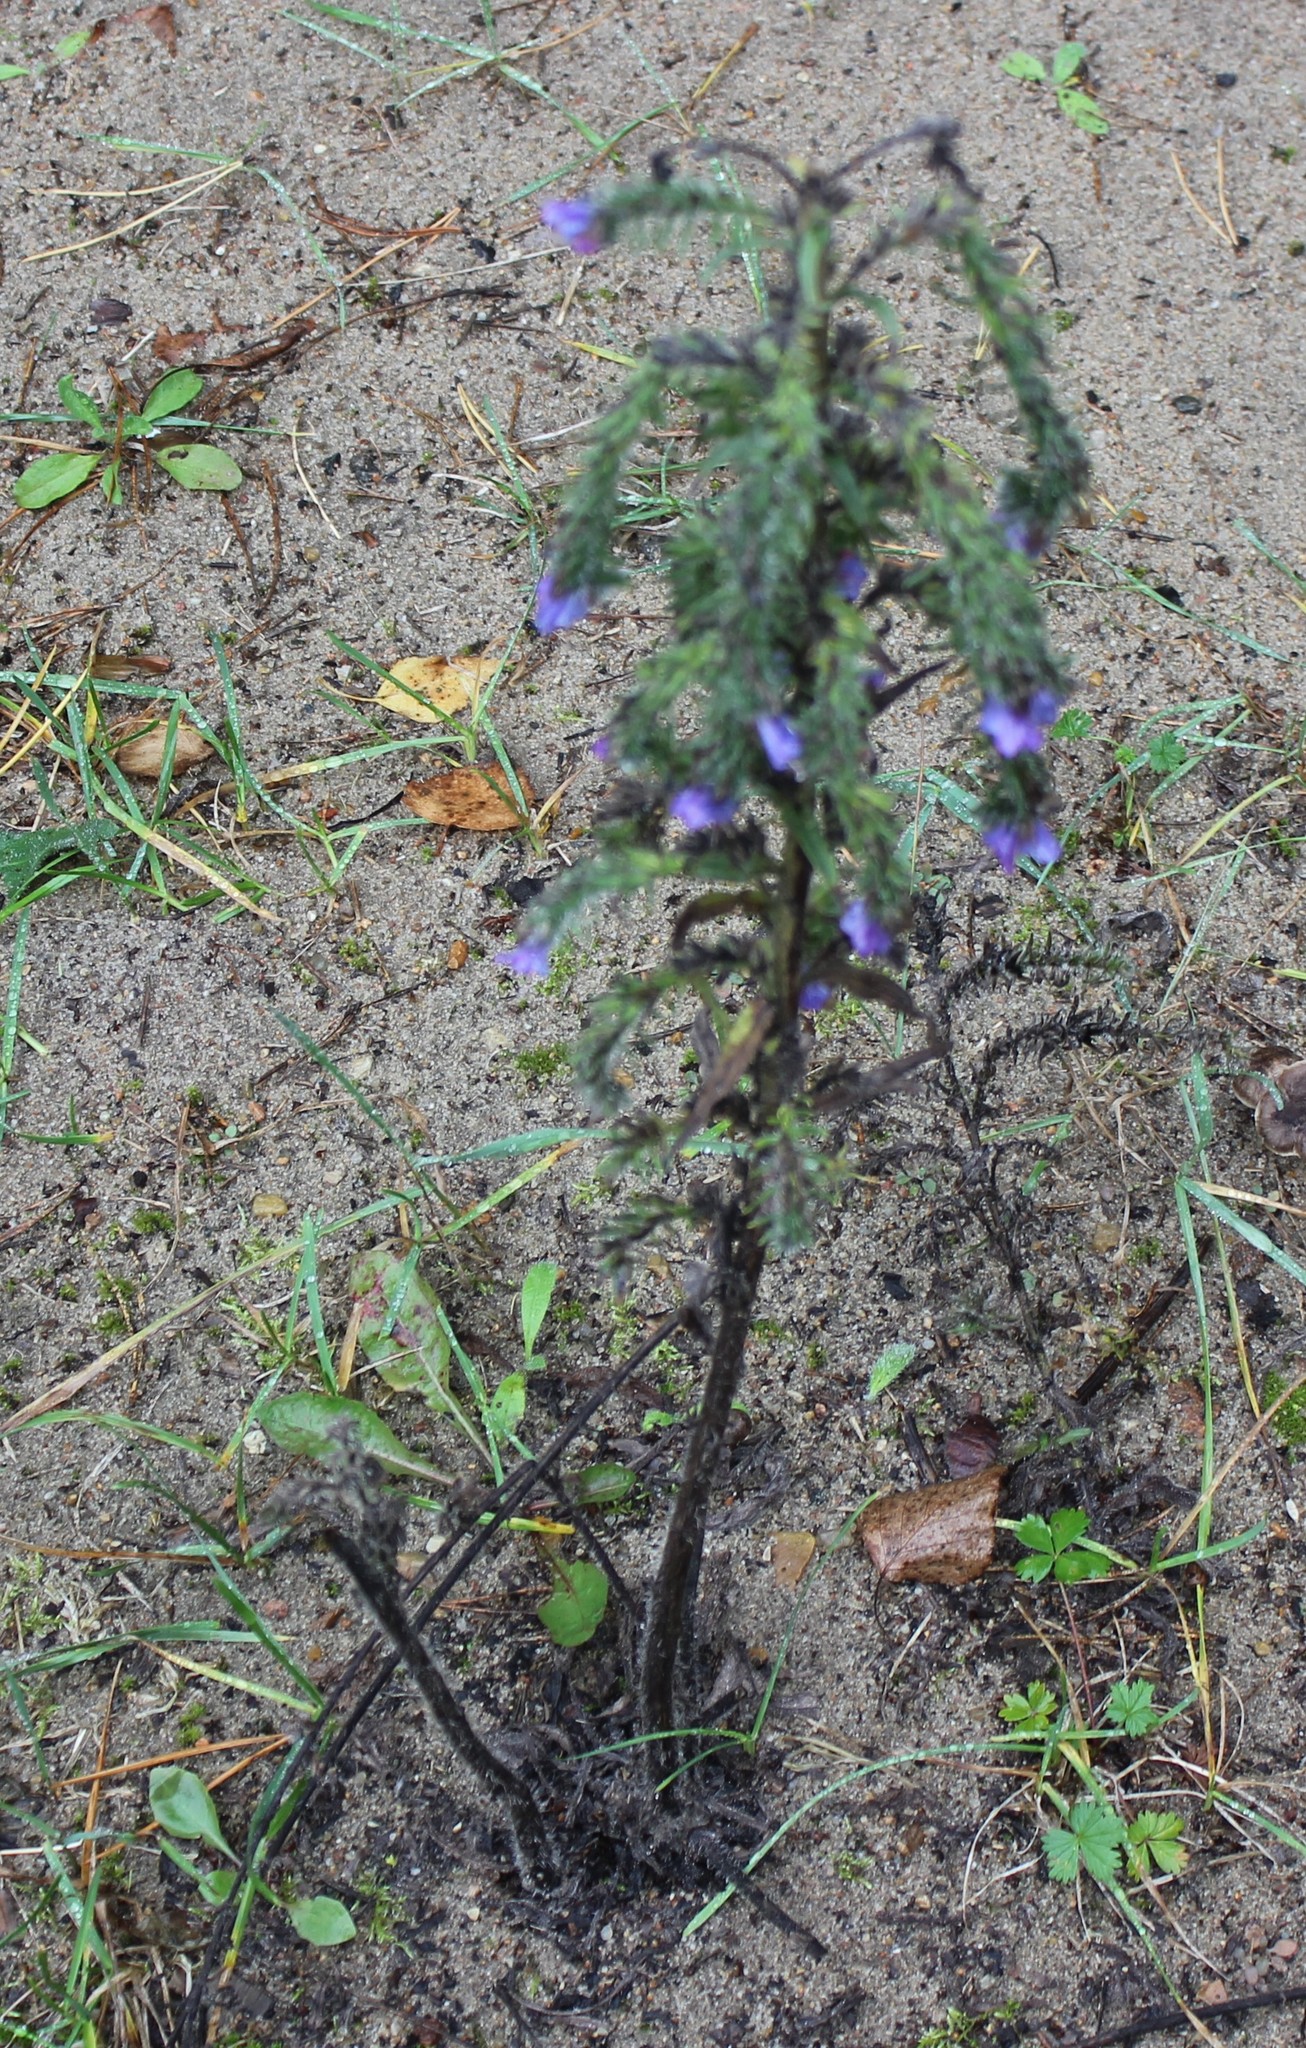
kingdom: Plantae
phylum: Tracheophyta
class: Magnoliopsida
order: Boraginales
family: Boraginaceae
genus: Echium
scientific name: Echium vulgare
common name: Common viper's bugloss
